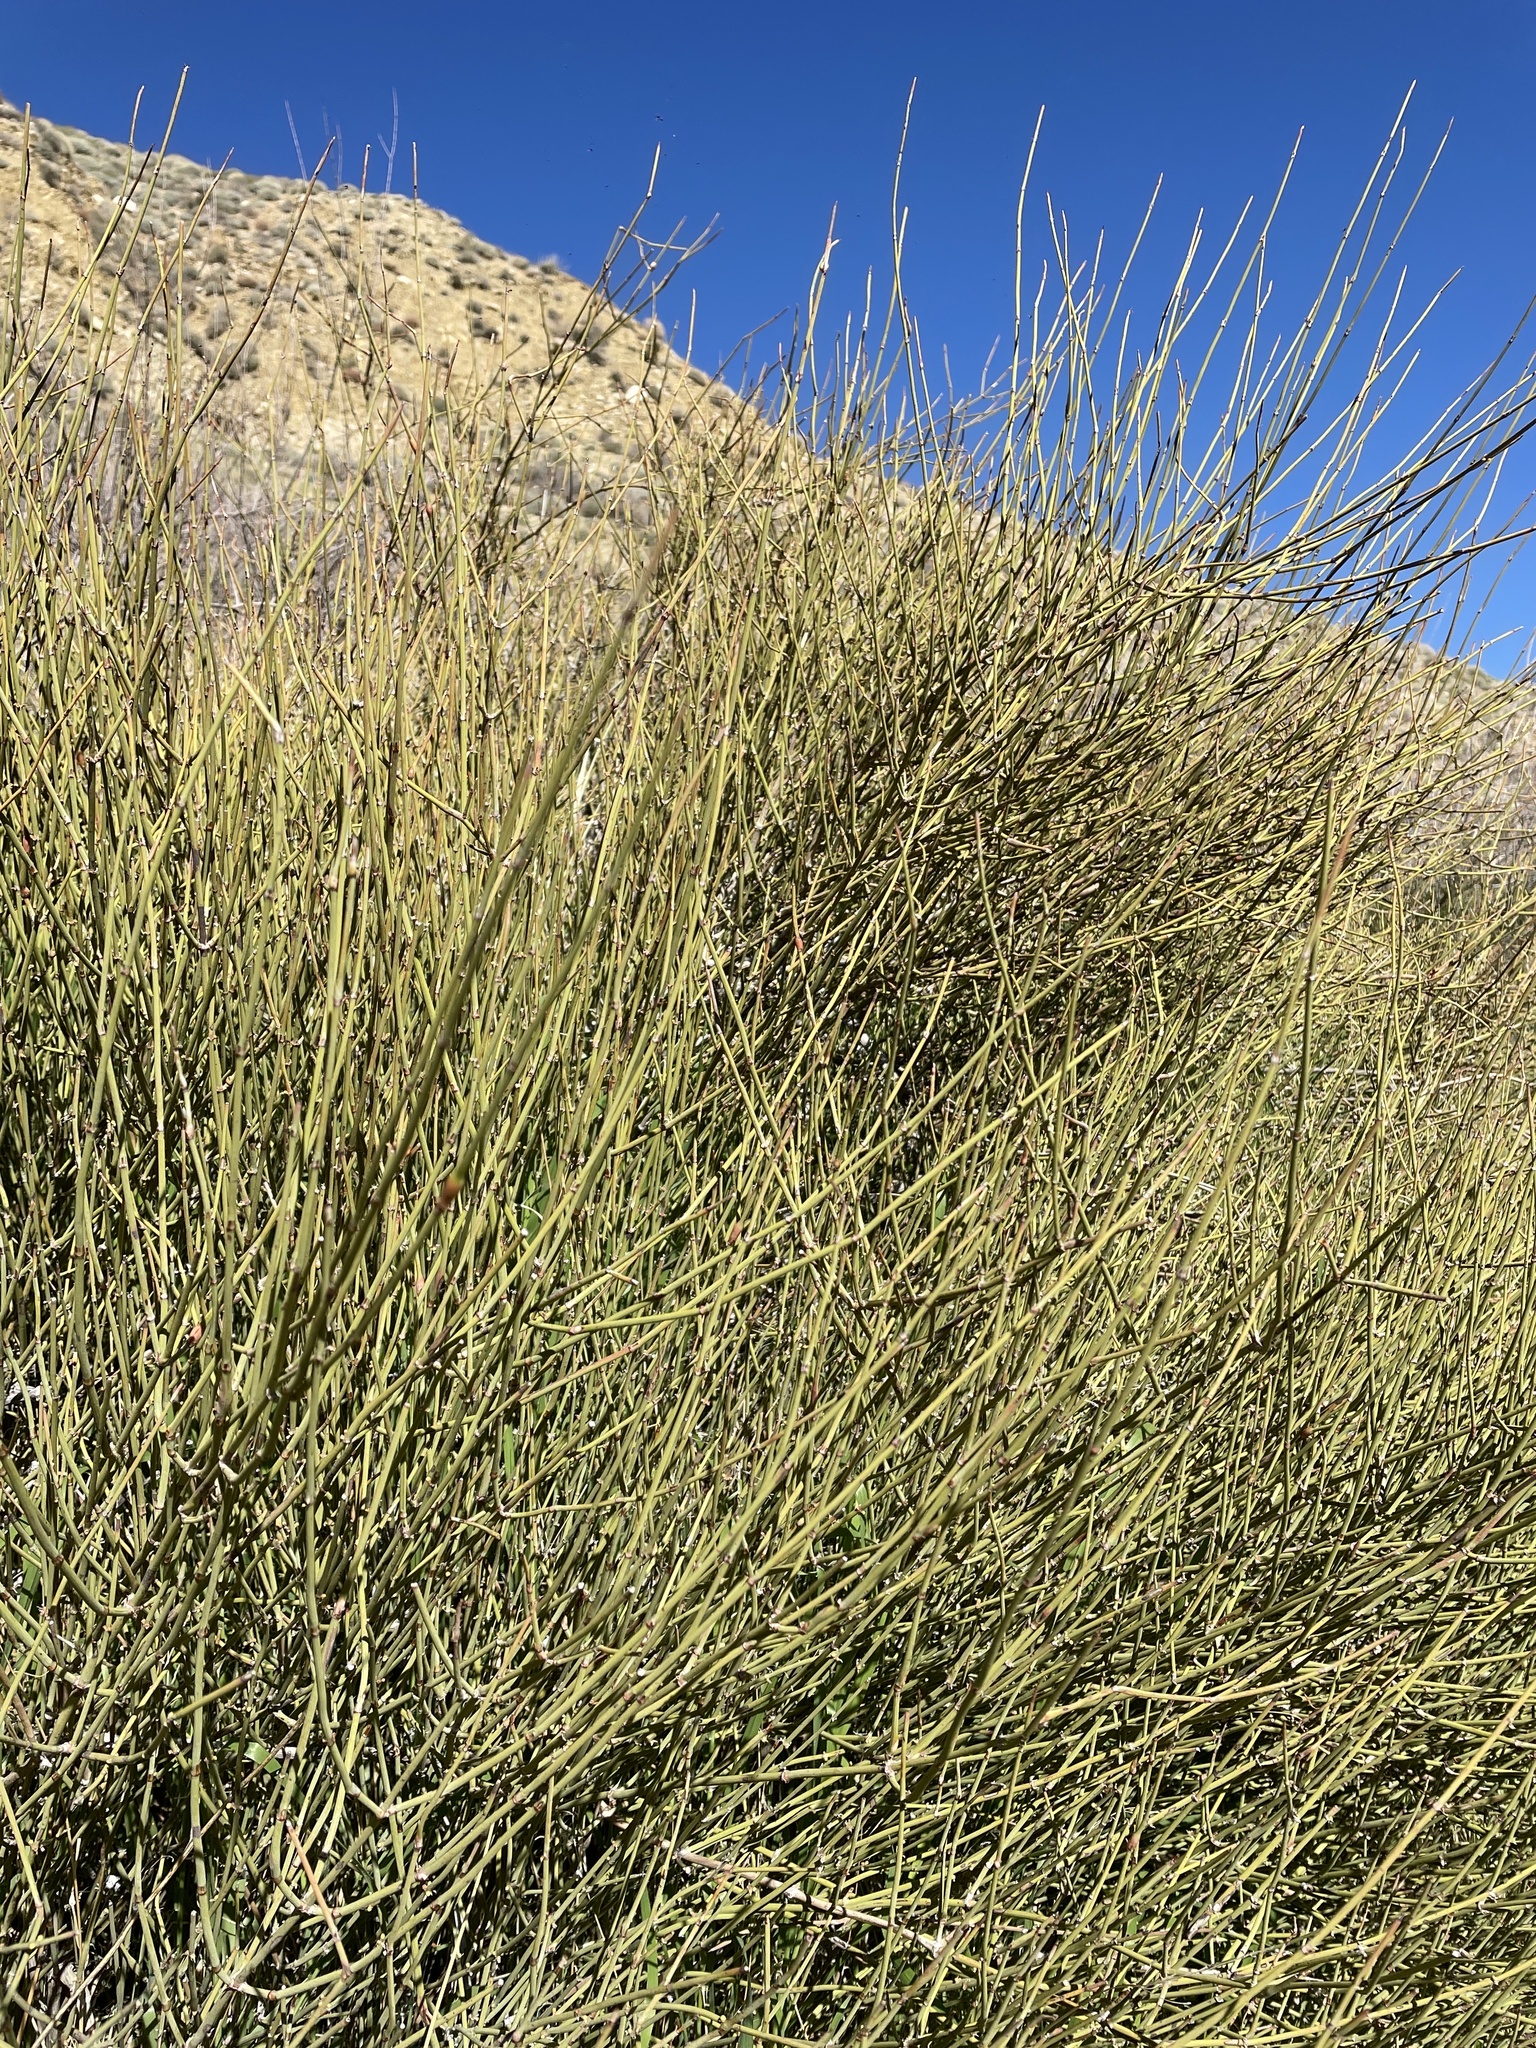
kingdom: Plantae
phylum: Tracheophyta
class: Gnetopsida
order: Ephedrales
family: Ephedraceae
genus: Ephedra
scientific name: Ephedra californica
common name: California ephedra
